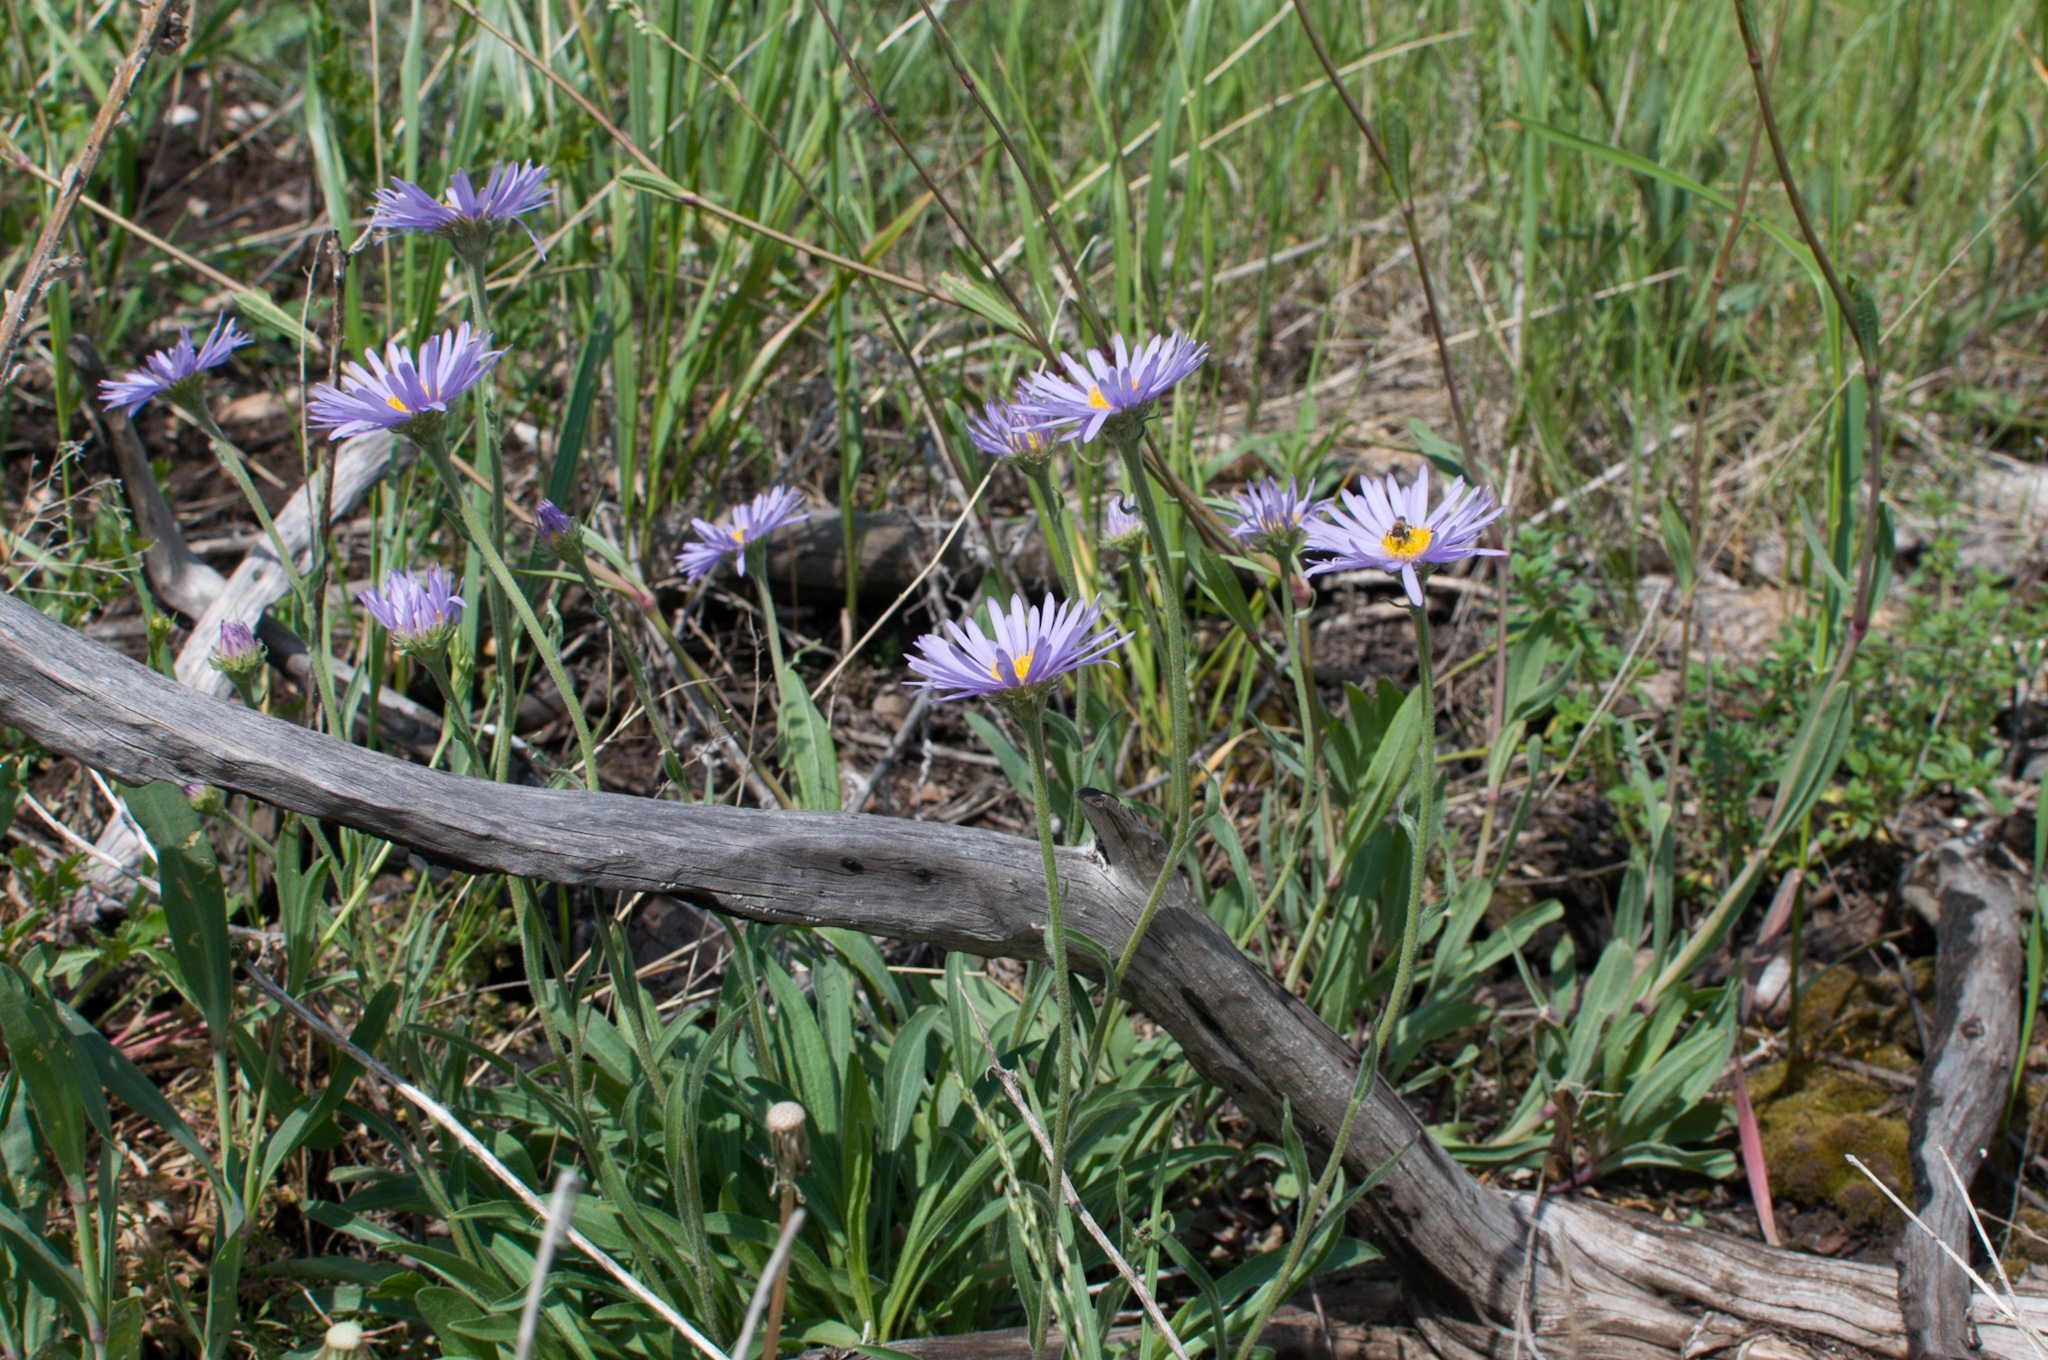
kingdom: Plantae
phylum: Tracheophyta
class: Magnoliopsida
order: Asterales
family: Asteraceae
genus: Aster
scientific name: Aster alpinus
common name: Alpine aster
